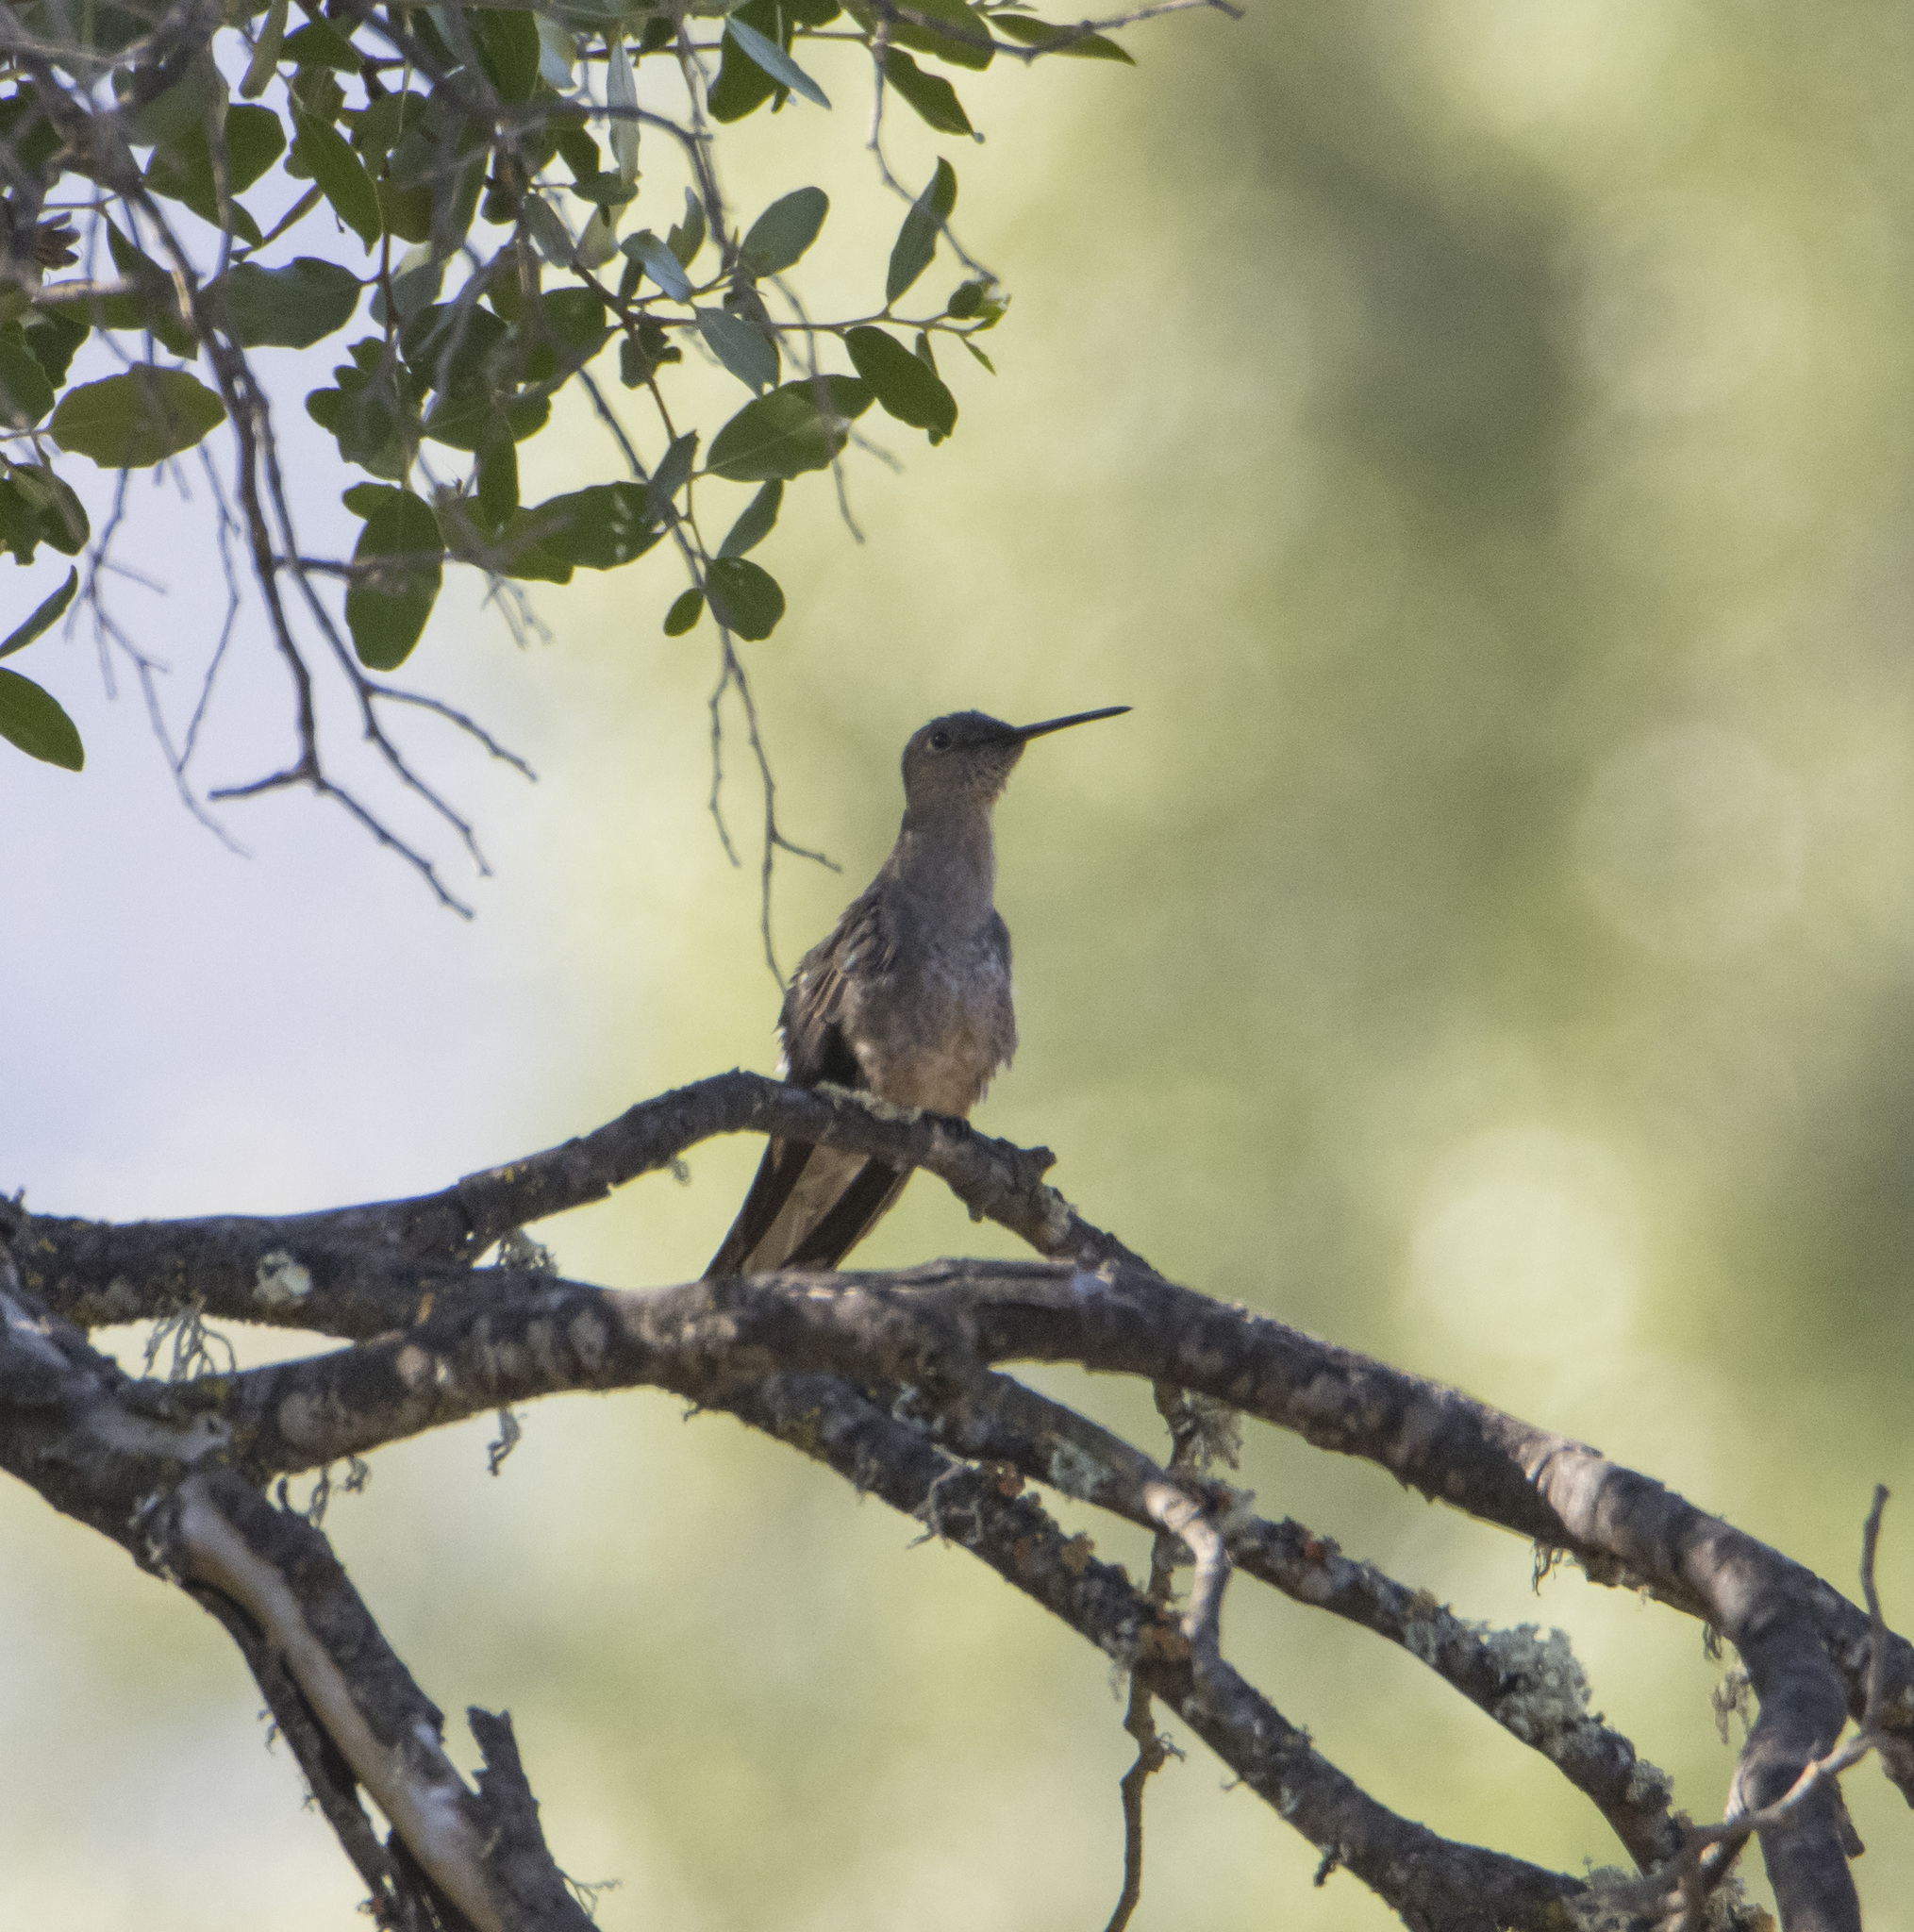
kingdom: Animalia
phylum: Chordata
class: Aves
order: Apodiformes
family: Trochilidae
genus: Patagona
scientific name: Patagona gigas
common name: Giant hummingbird
